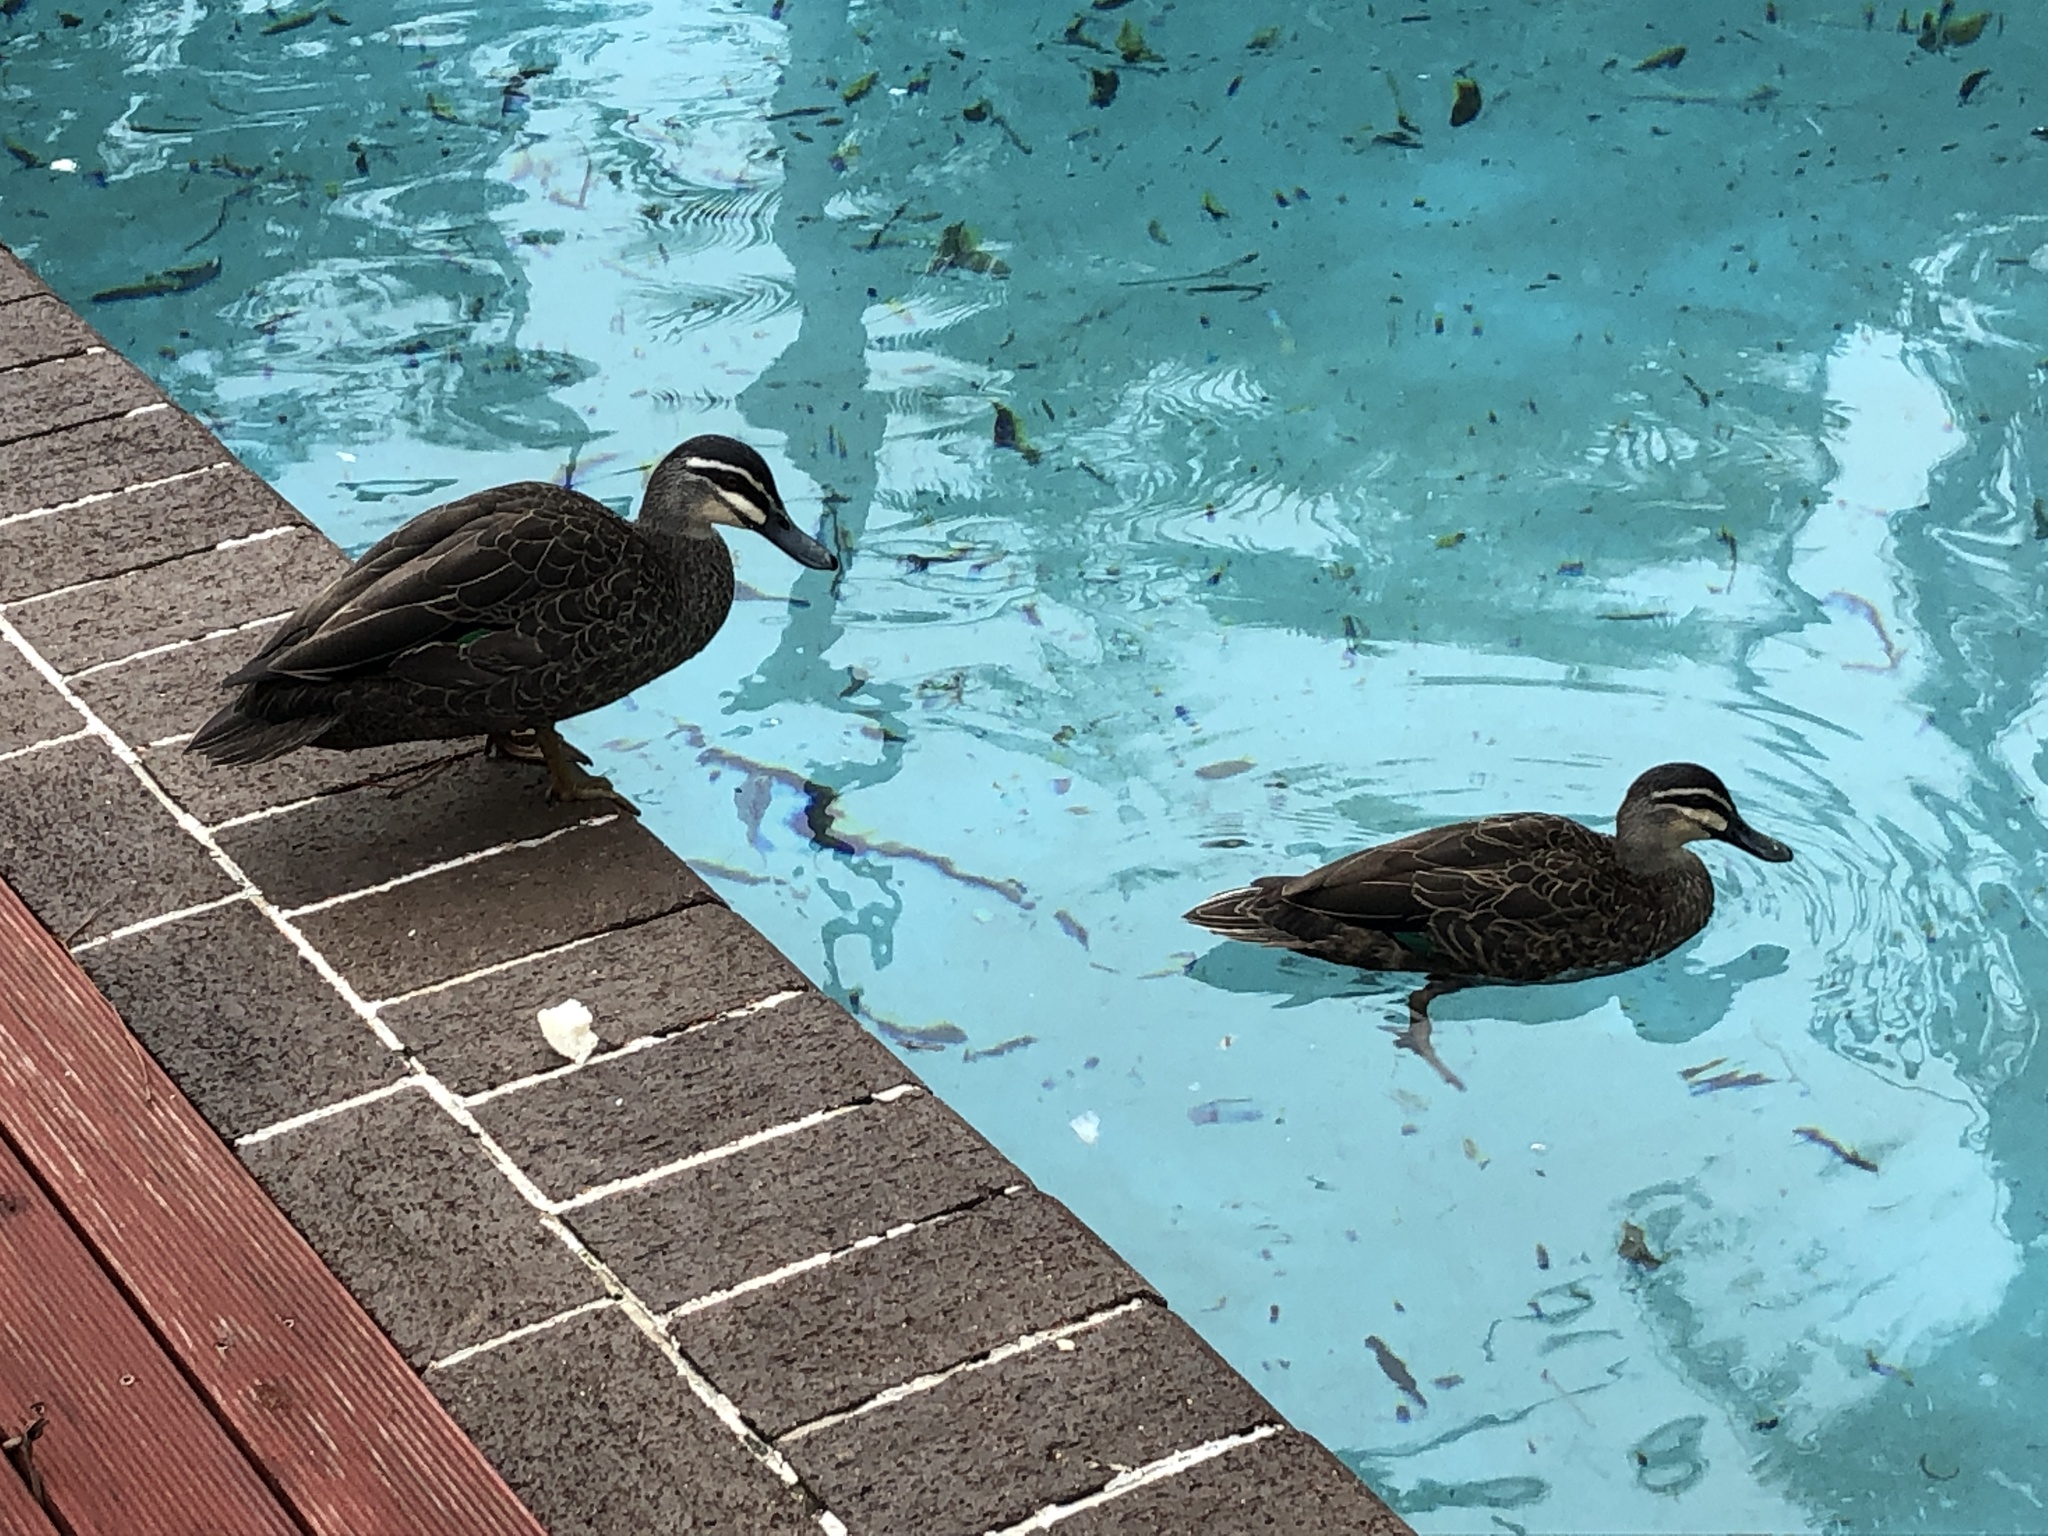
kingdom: Animalia
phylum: Chordata
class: Aves
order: Anseriformes
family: Anatidae
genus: Anas
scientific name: Anas superciliosa
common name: Pacific black duck
